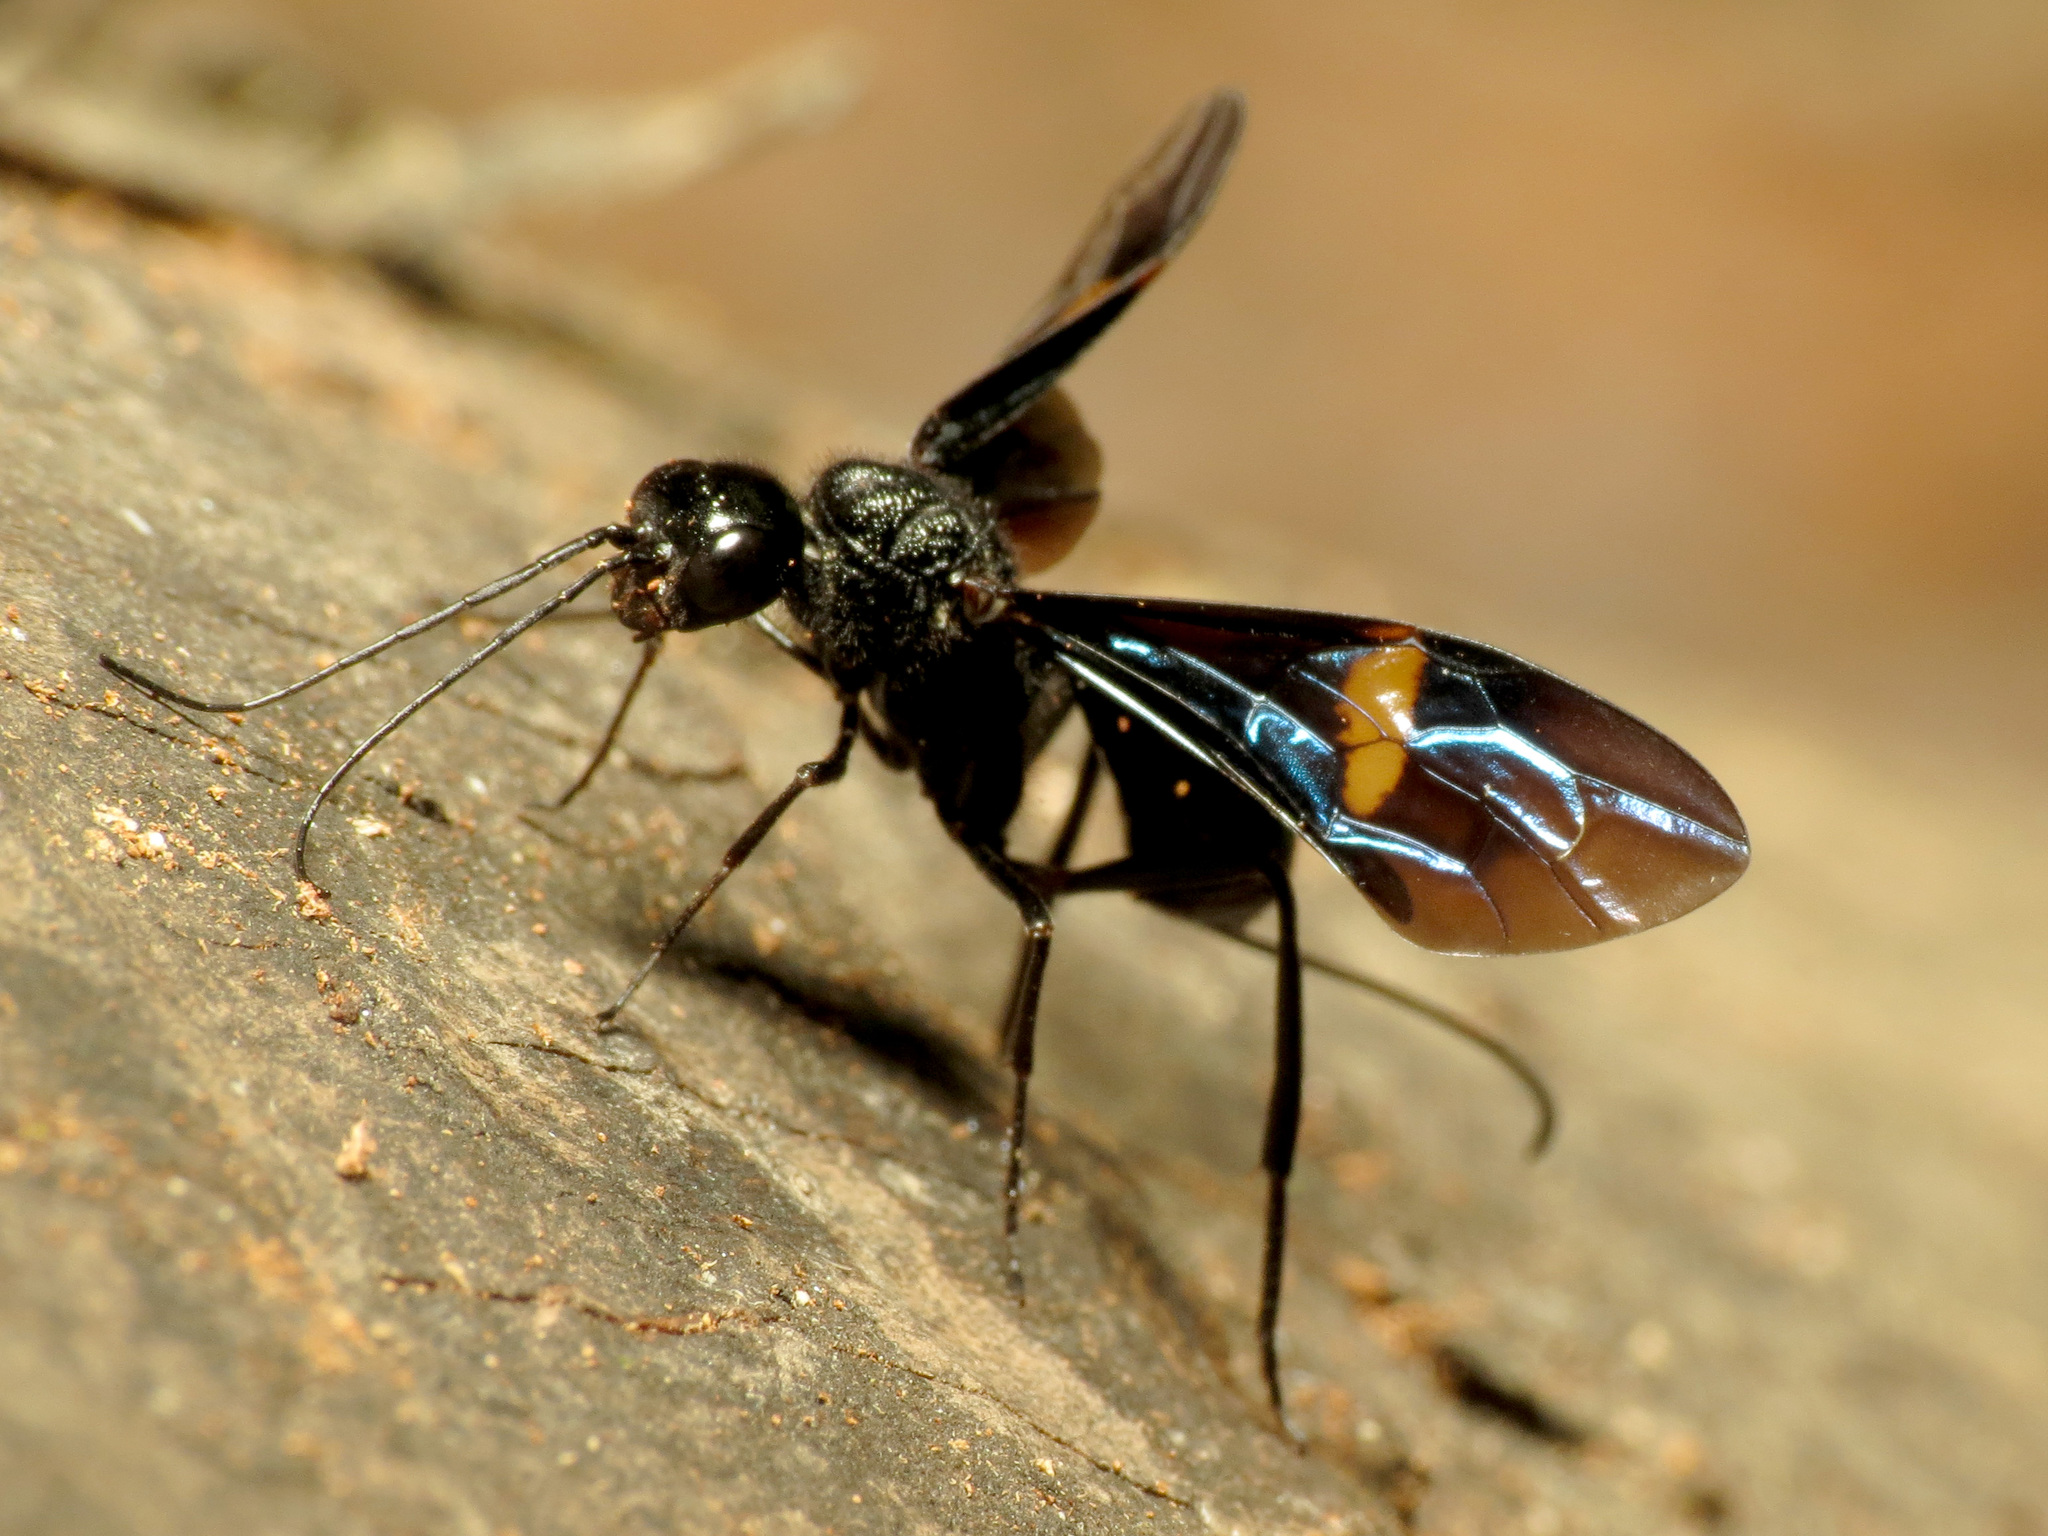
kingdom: Animalia
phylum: Arthropoda
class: Insecta
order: Hymenoptera
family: Aulacidae
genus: Pristaulacus
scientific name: Pristaulacus fasciatus
